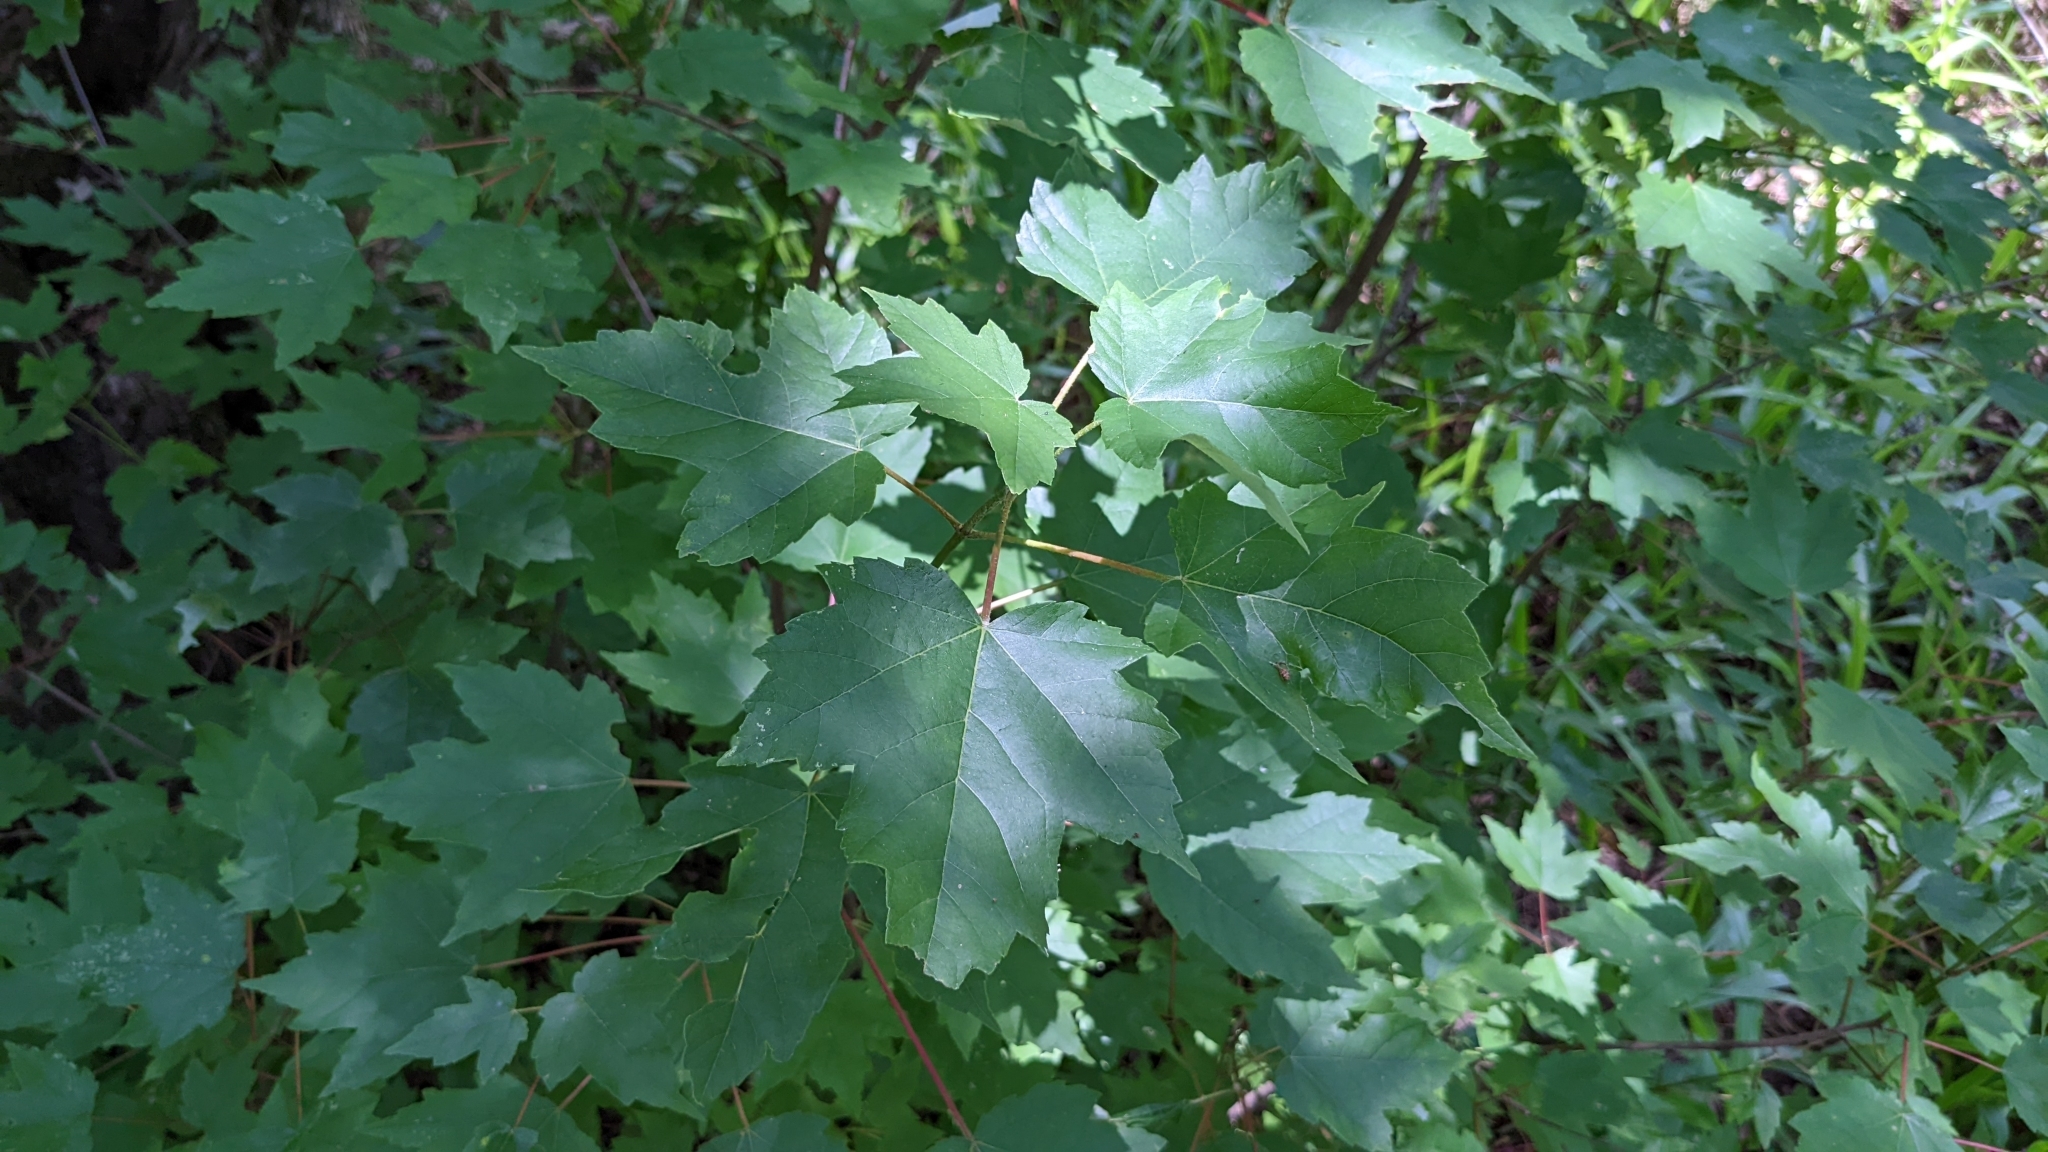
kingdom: Plantae
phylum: Tracheophyta
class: Magnoliopsida
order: Sapindales
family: Sapindaceae
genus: Acer
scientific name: Acer rubrum
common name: Red maple
